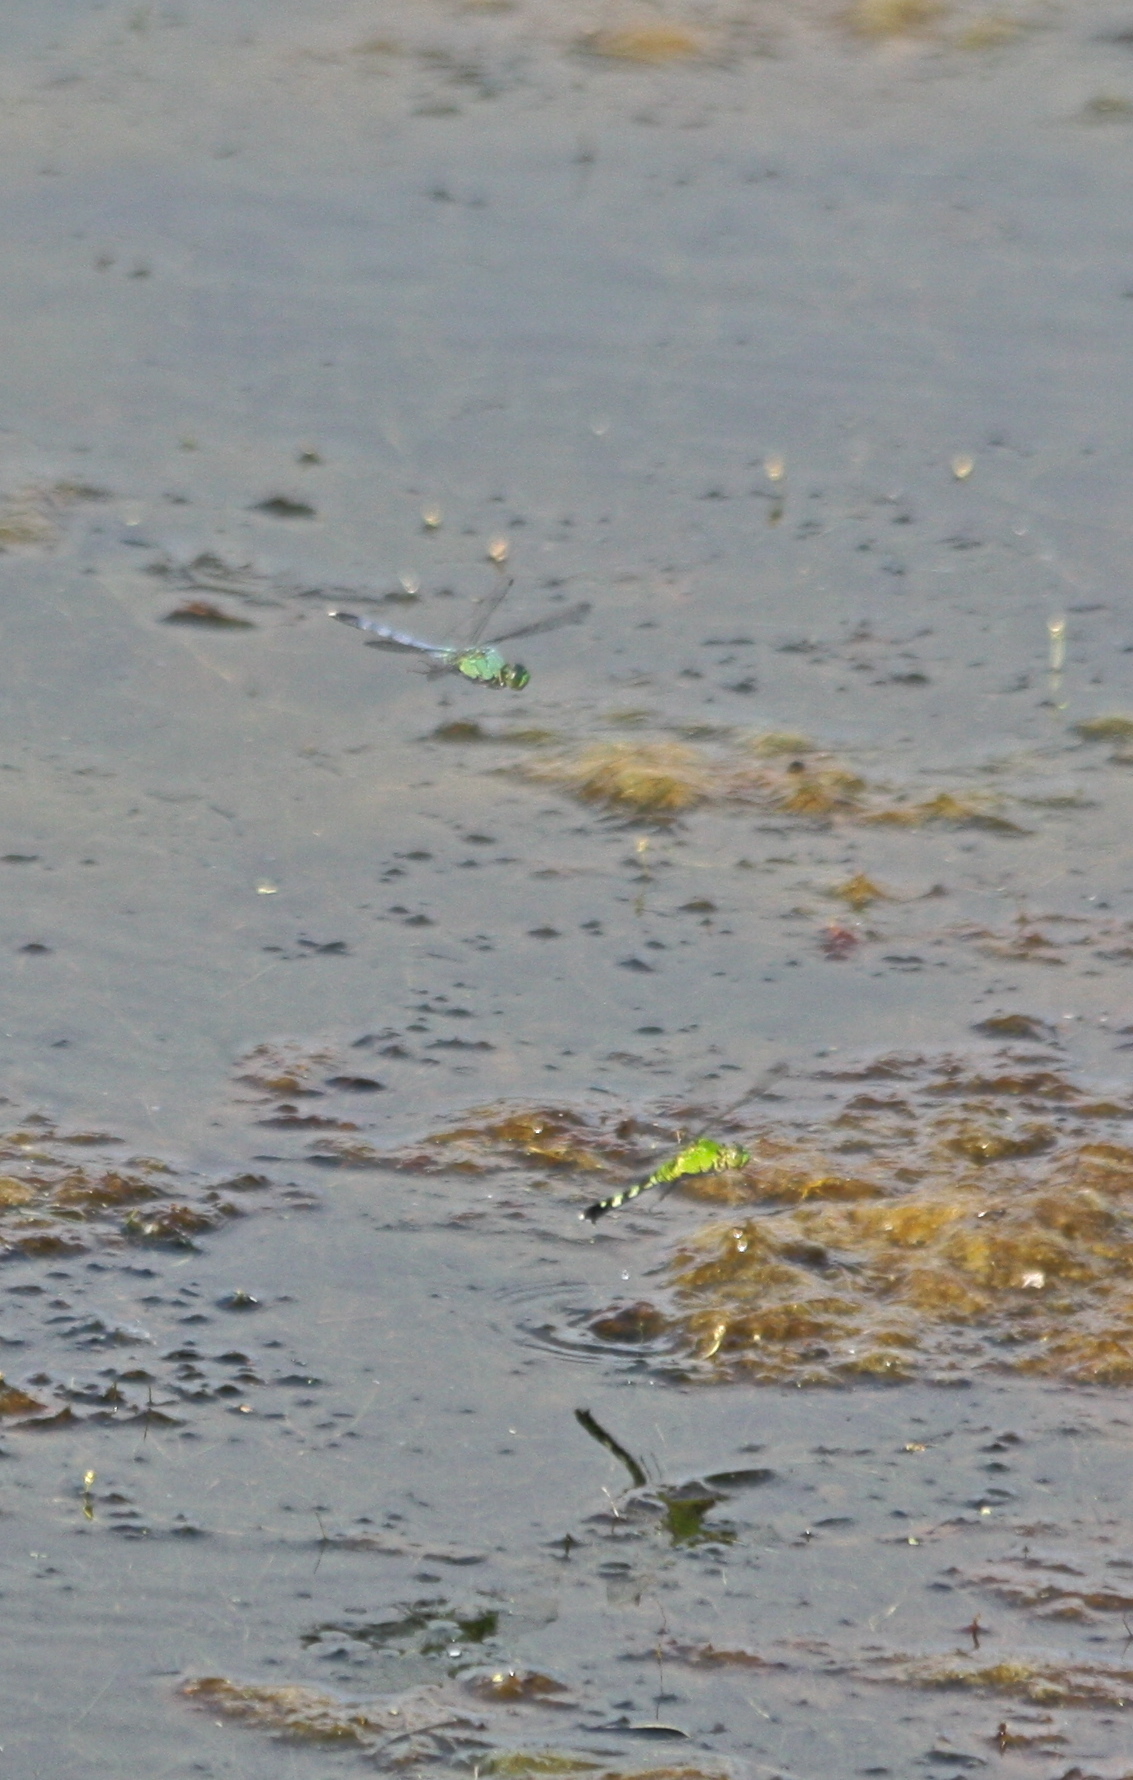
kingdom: Animalia
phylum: Arthropoda
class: Insecta
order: Odonata
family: Libellulidae
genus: Erythemis
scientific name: Erythemis simplicicollis
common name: Eastern pondhawk
